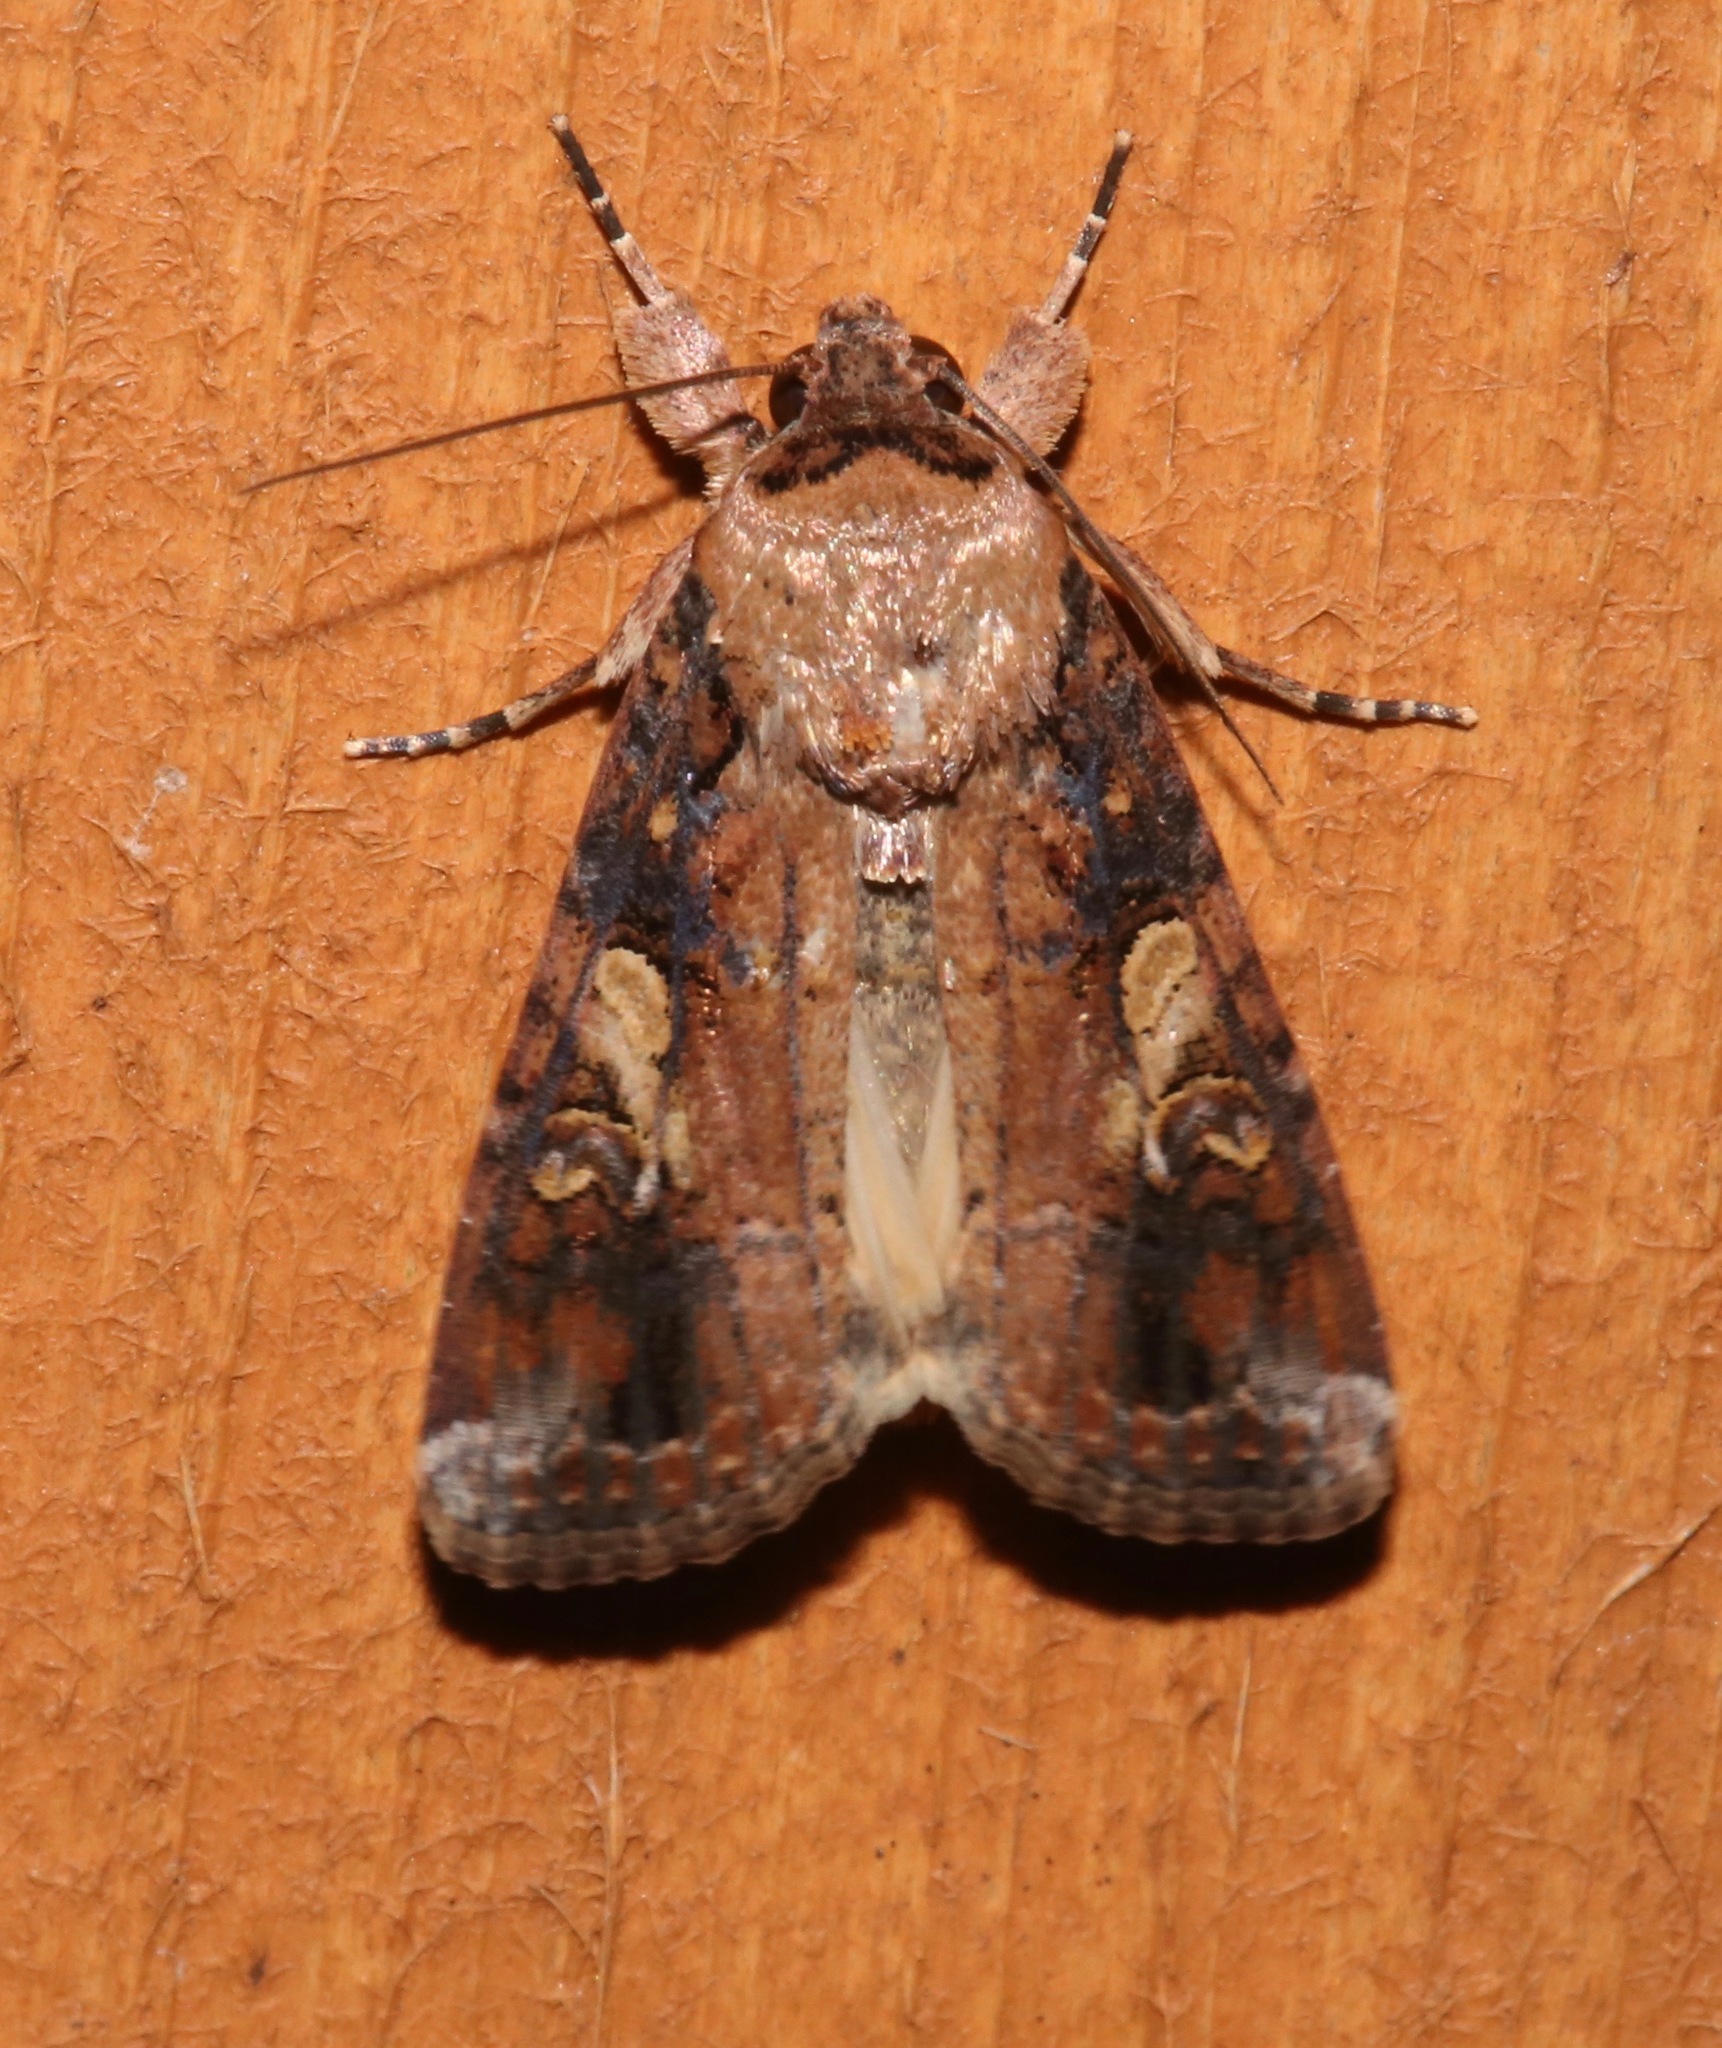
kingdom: Animalia
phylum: Arthropoda
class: Insecta
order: Lepidoptera
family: Noctuidae
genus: Spodoptera
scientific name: Spodoptera frugiperda
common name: Fall armyworm
